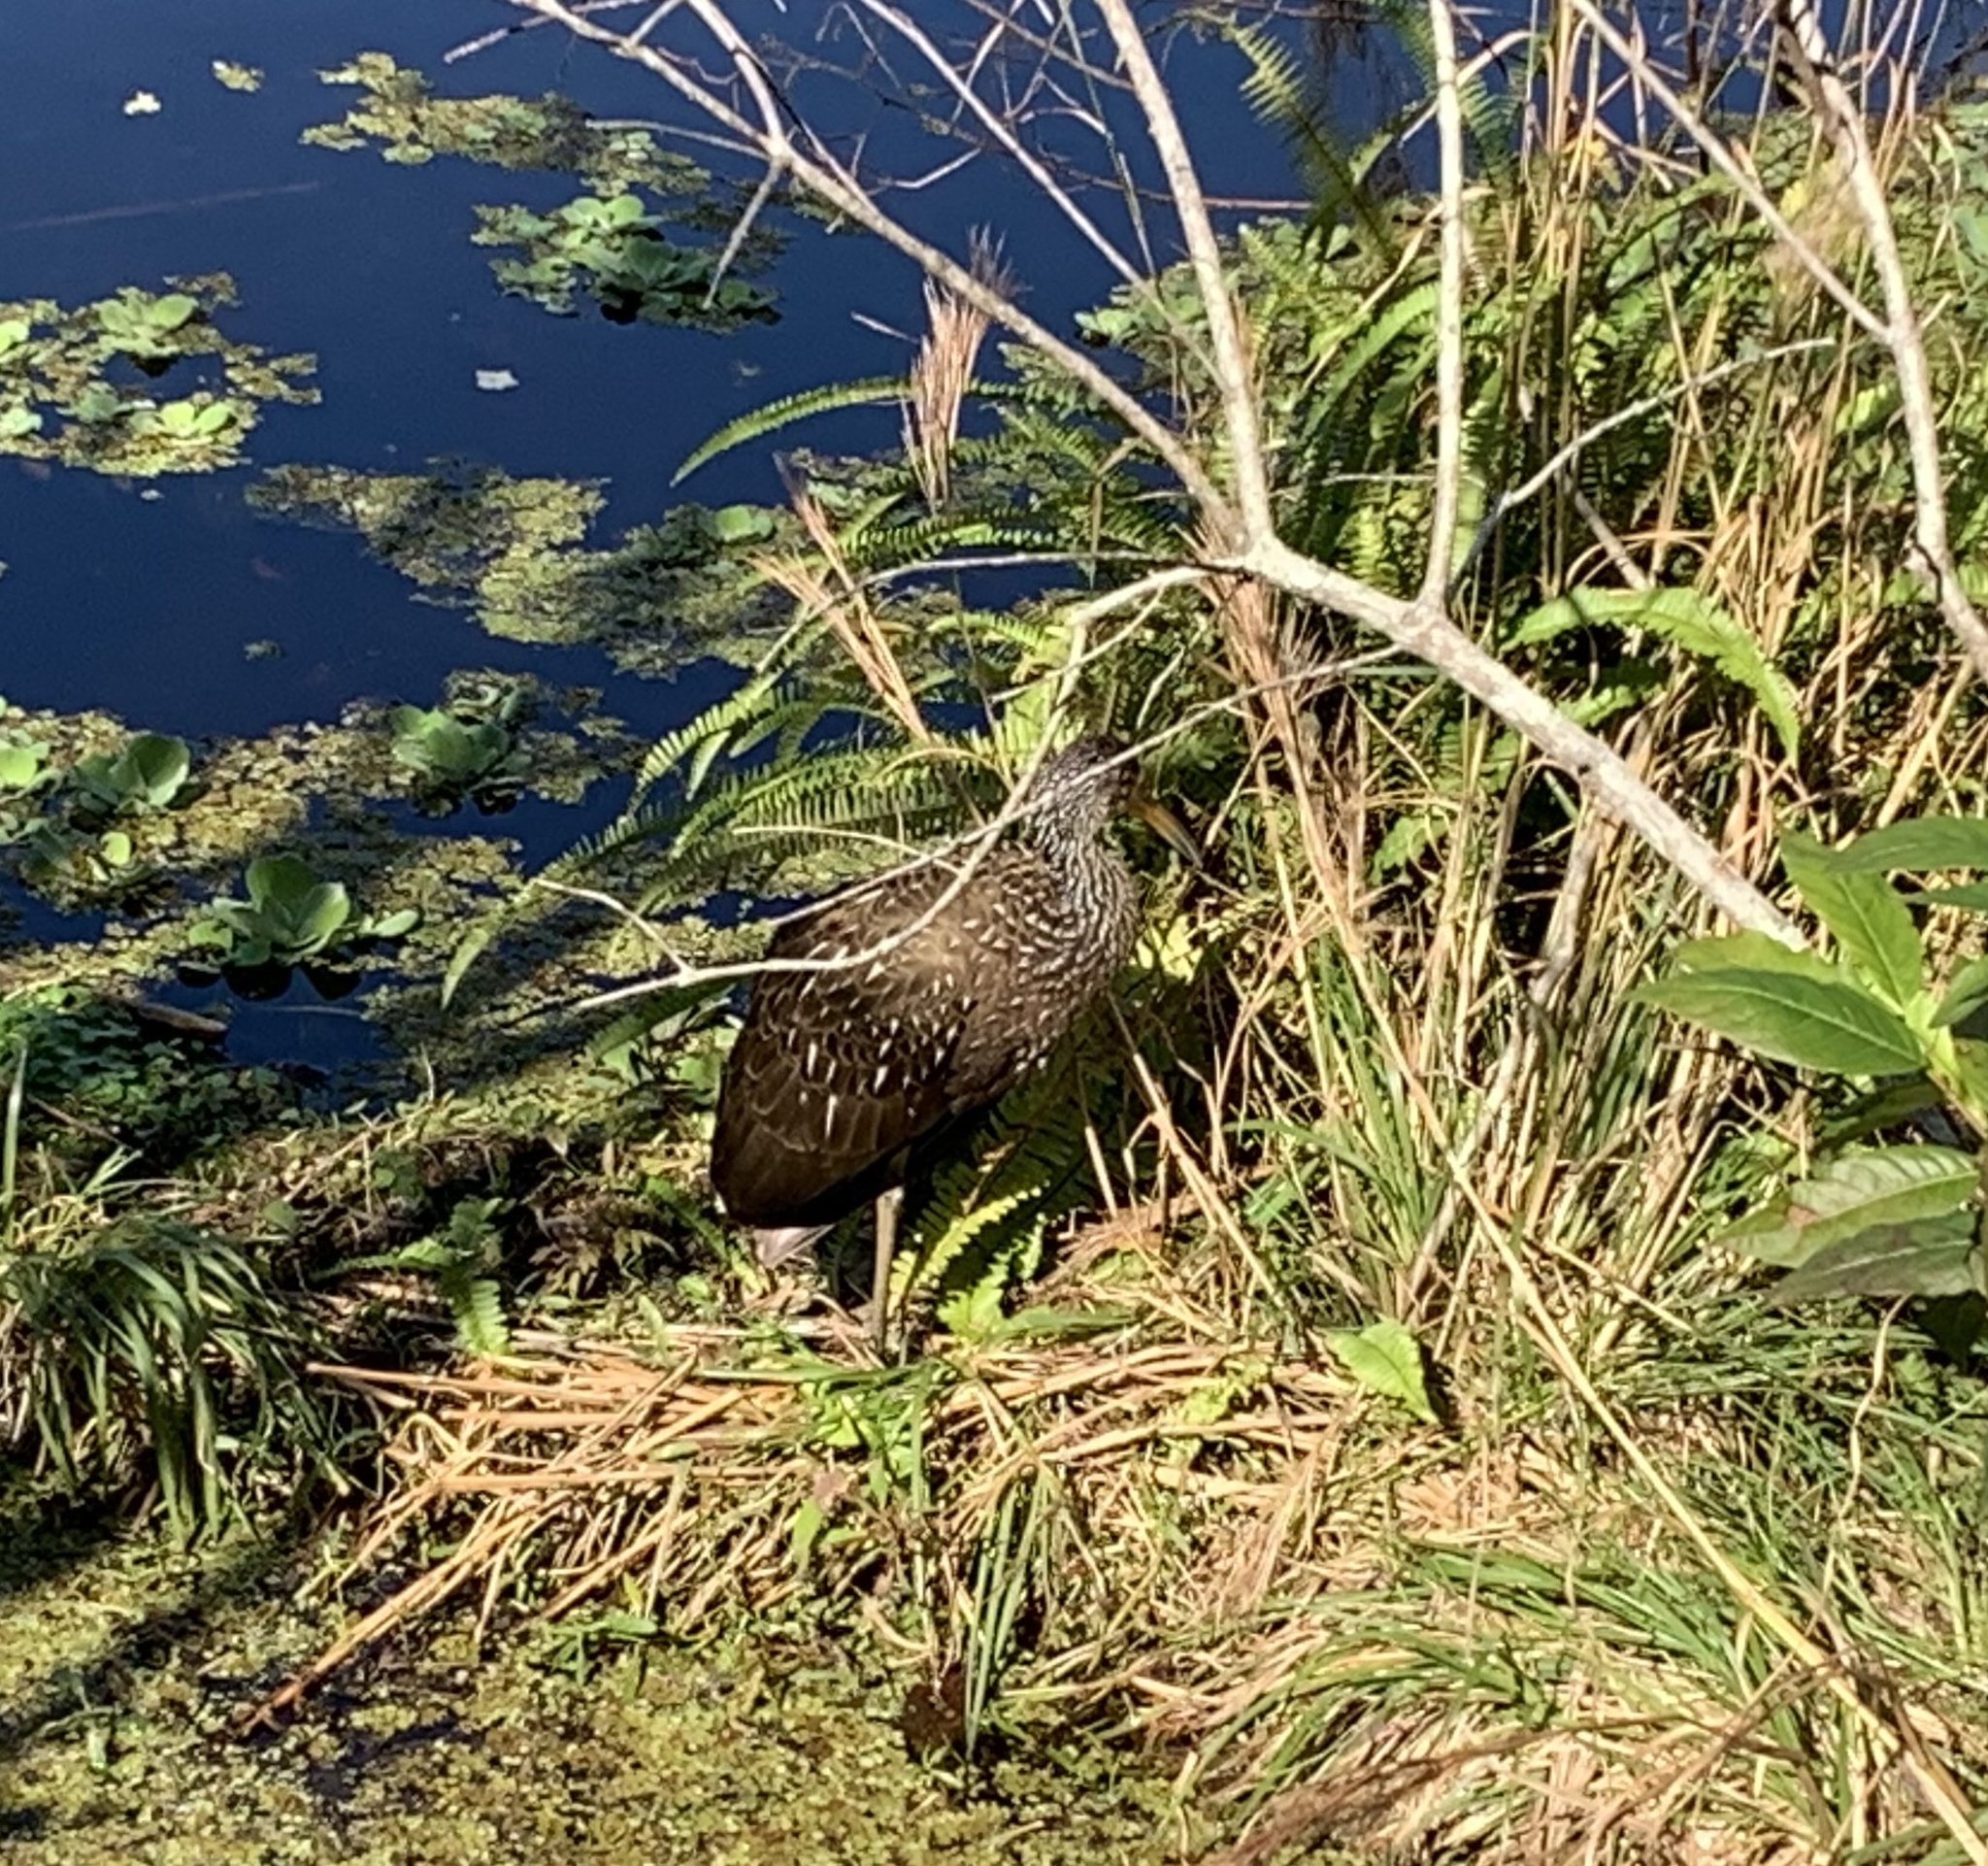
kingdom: Animalia
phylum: Chordata
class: Aves
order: Gruiformes
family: Aramidae
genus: Aramus
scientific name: Aramus guarauna
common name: Limpkin
